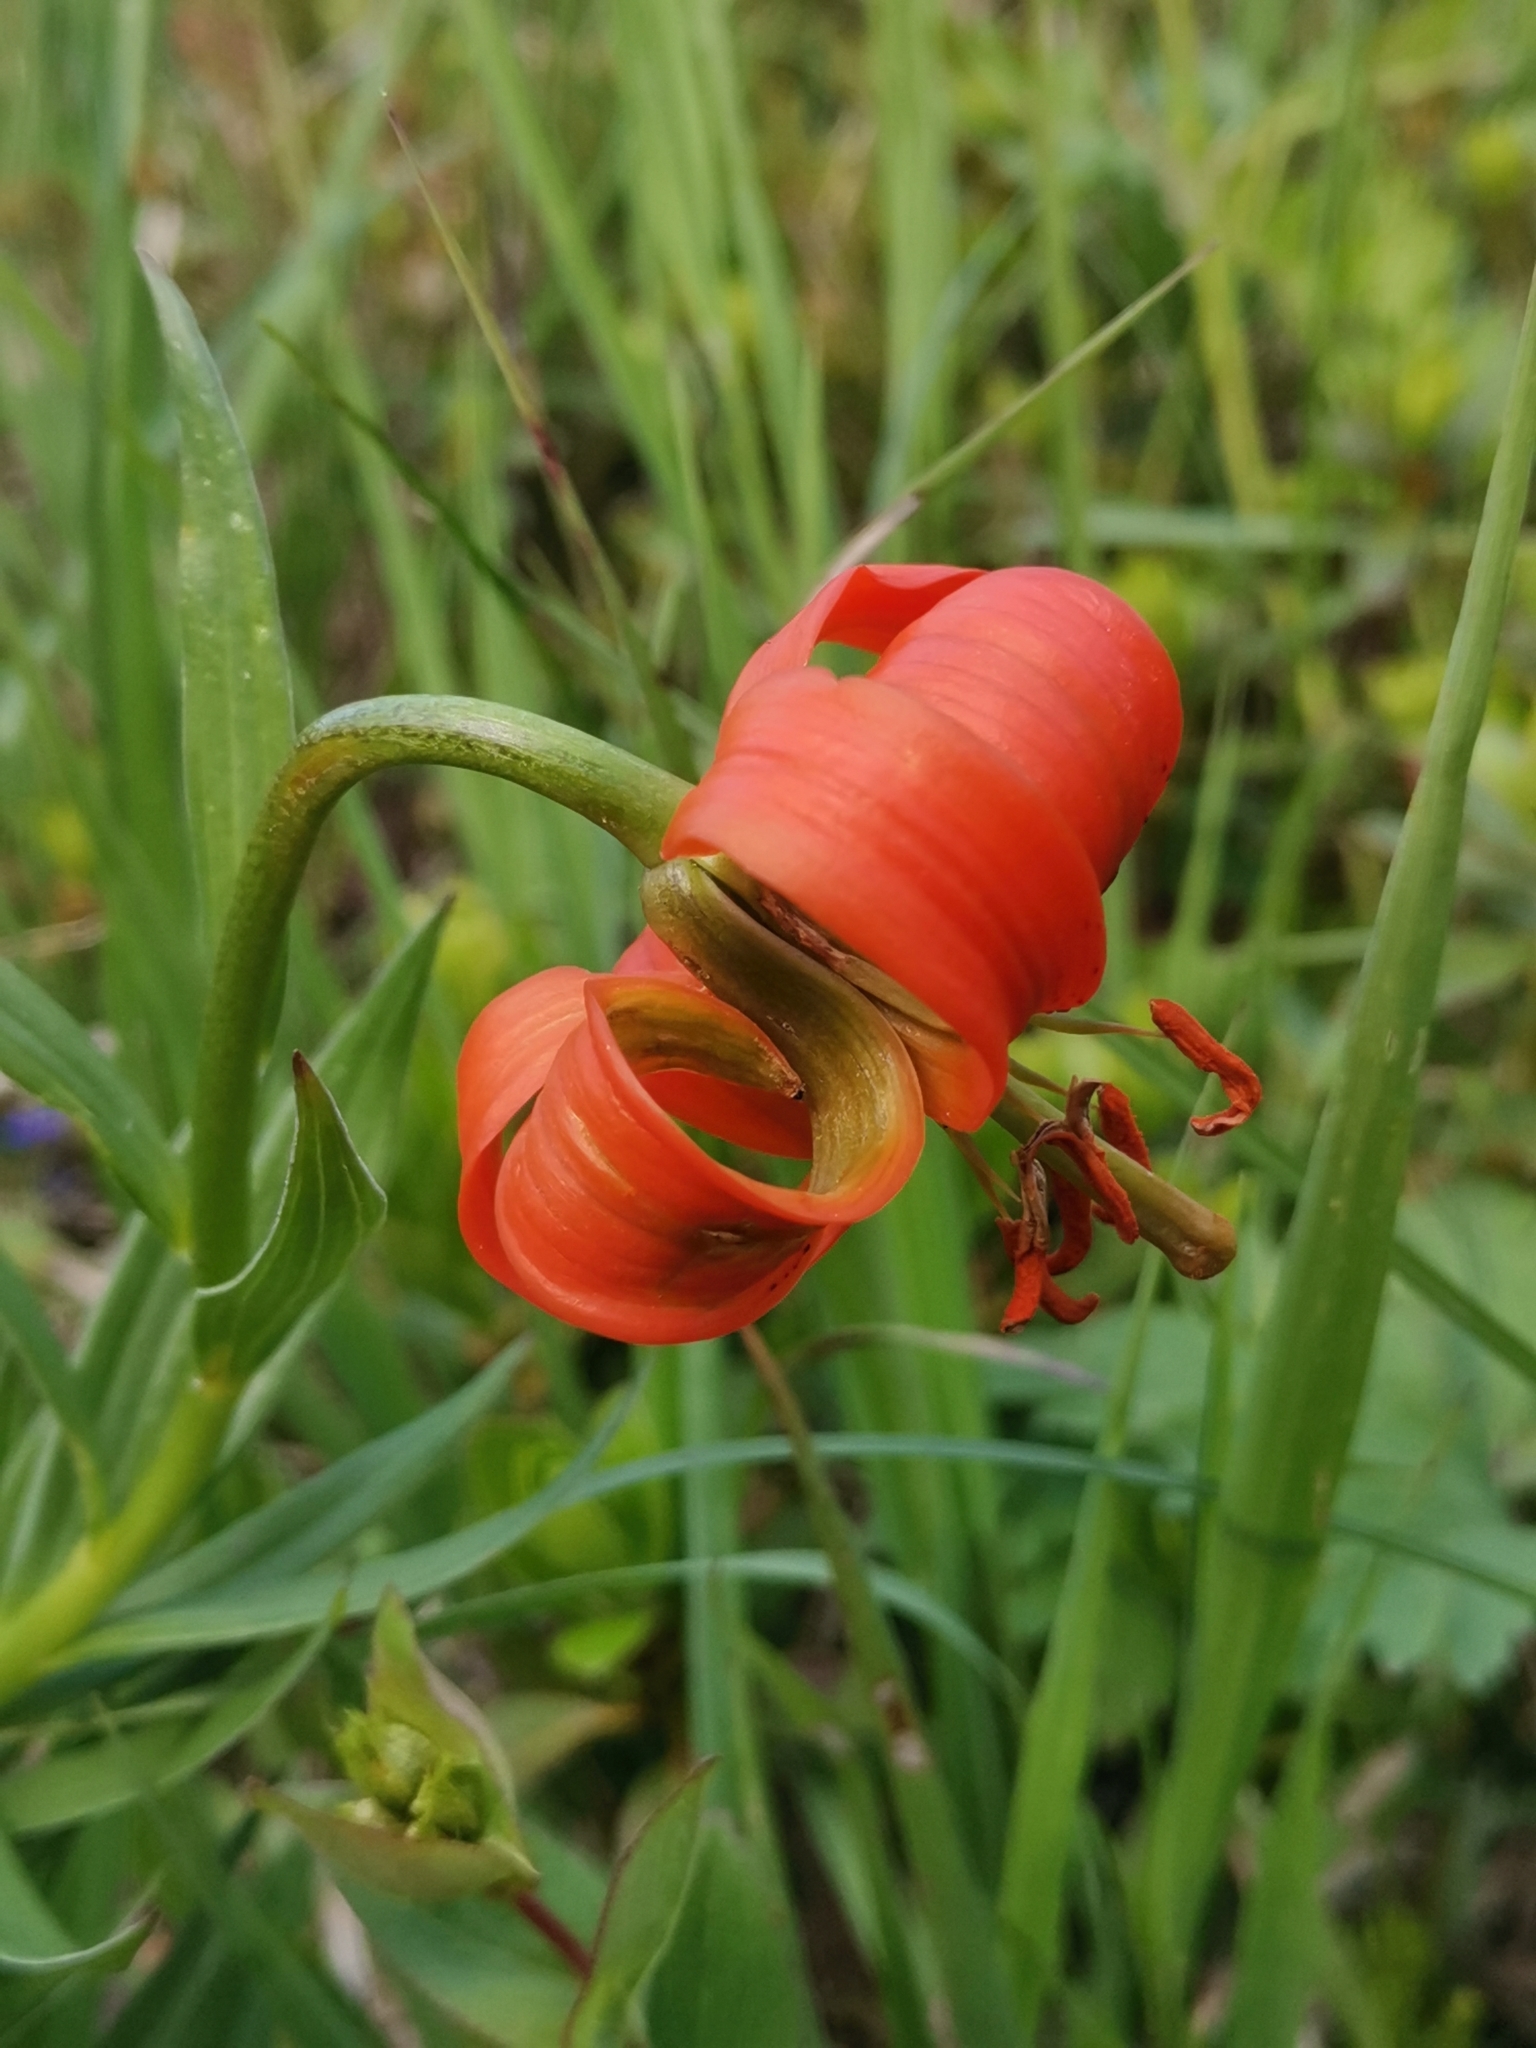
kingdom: Plantae
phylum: Tracheophyta
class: Liliopsida
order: Liliales
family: Liliaceae
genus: Lilium
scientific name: Lilium carniolicum
